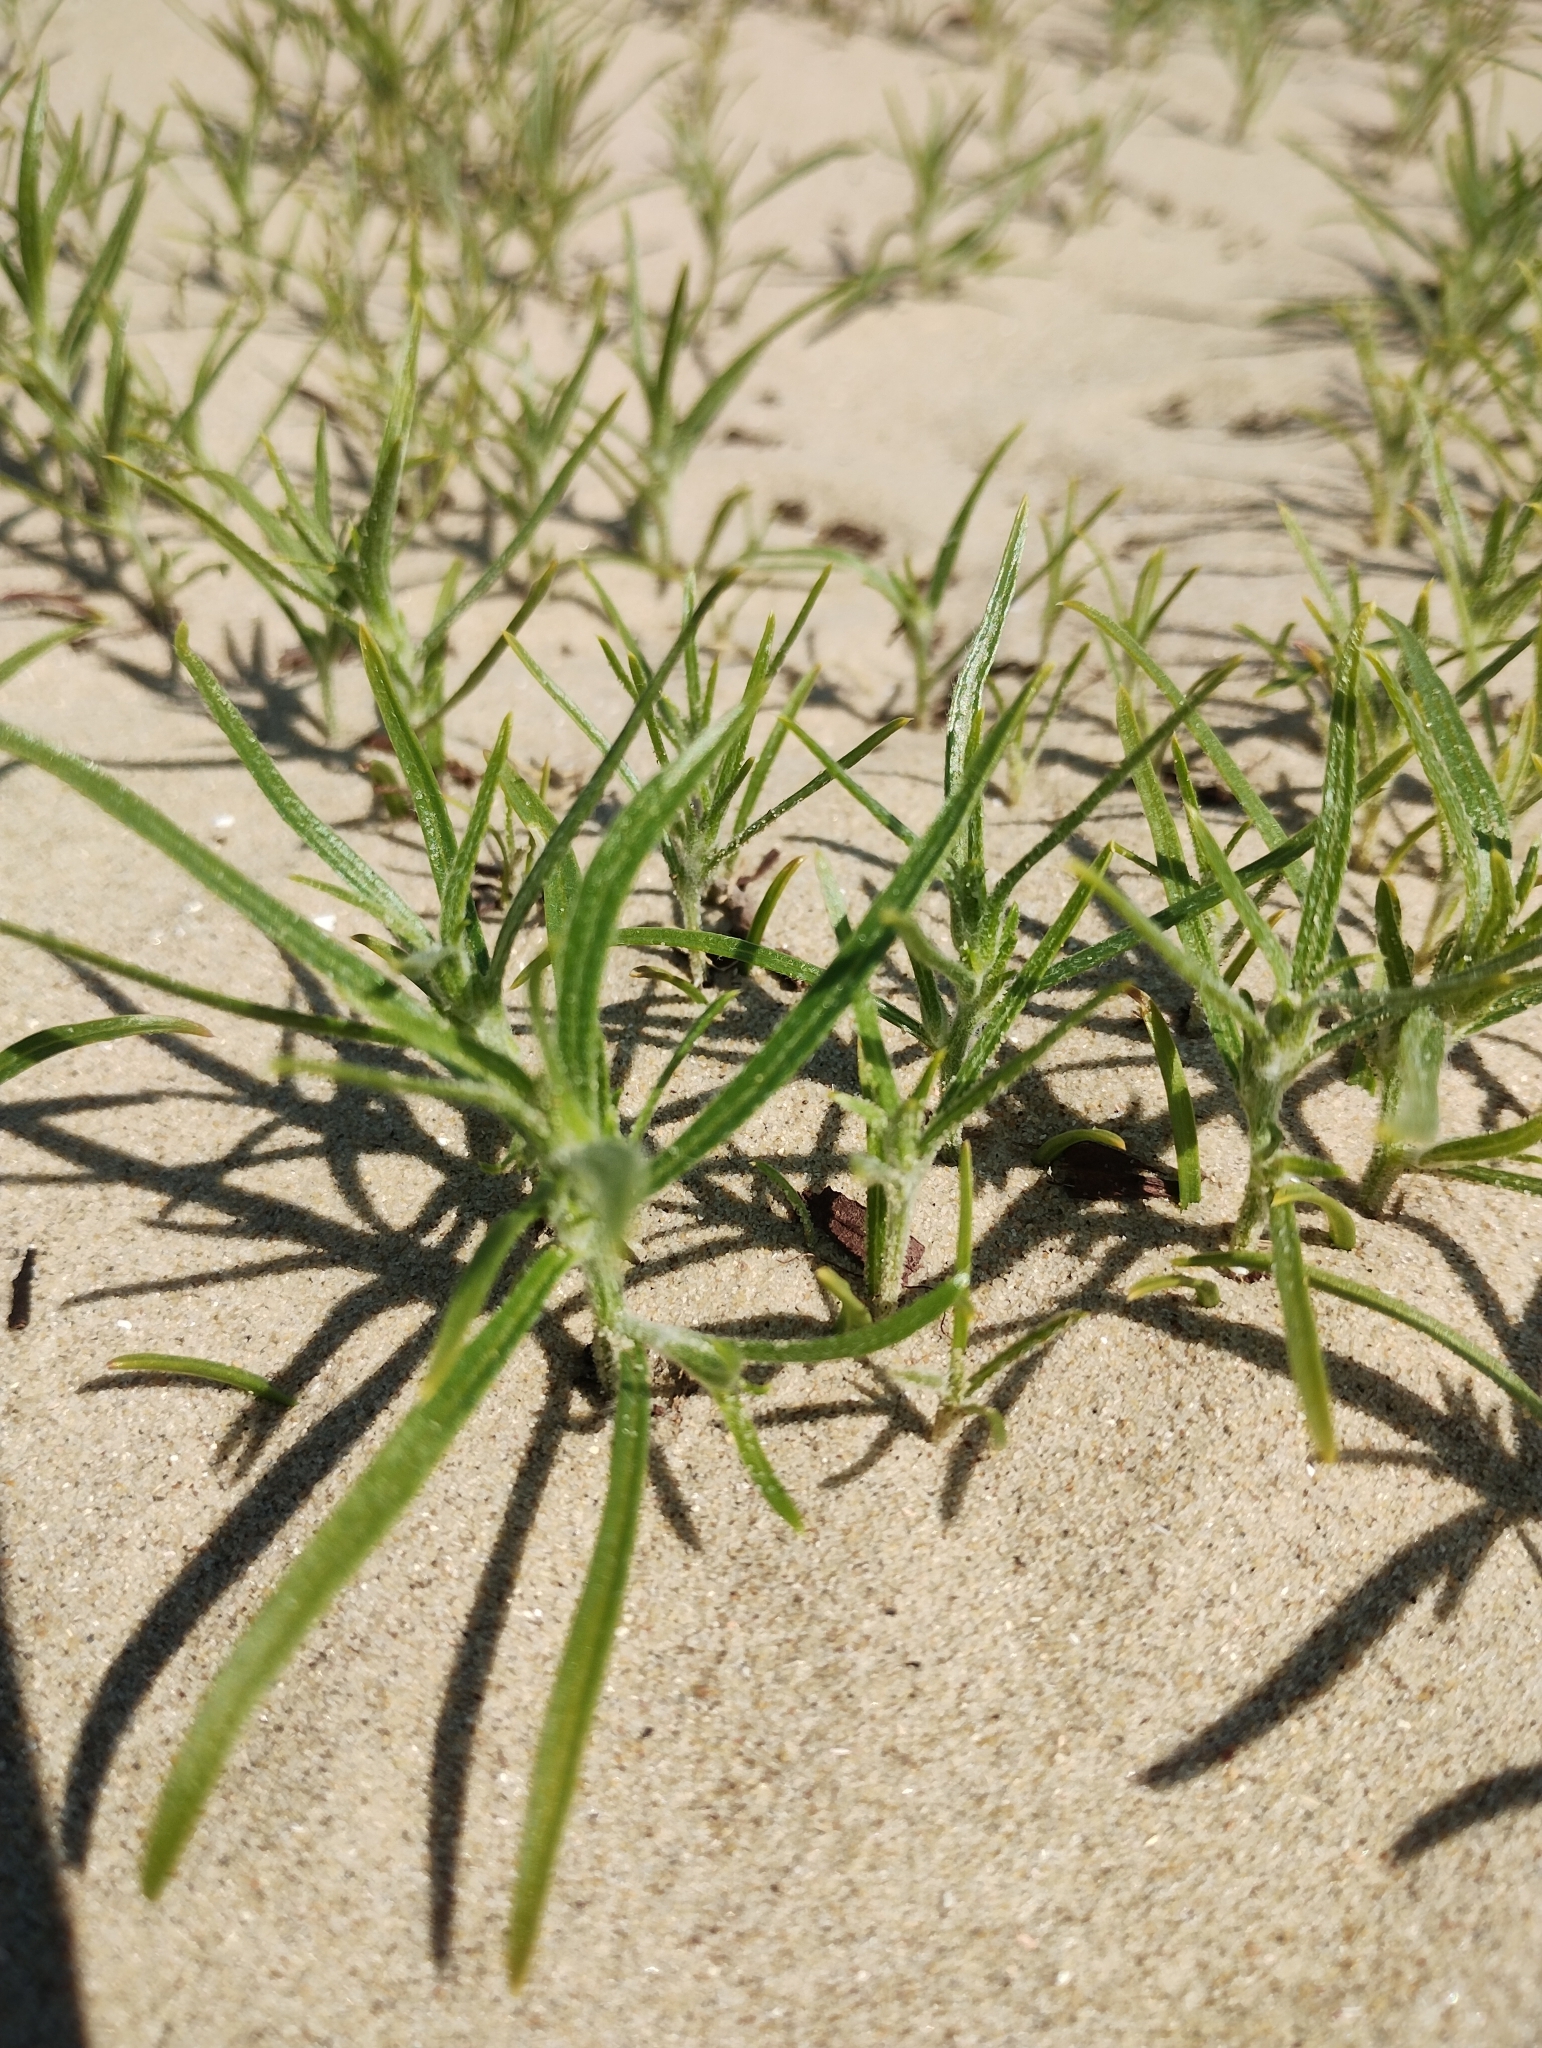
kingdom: Plantae
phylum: Tracheophyta
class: Magnoliopsida
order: Caryophyllales
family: Amaranthaceae
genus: Corispermum
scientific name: Corispermum pallasii
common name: Siberian bugseed
